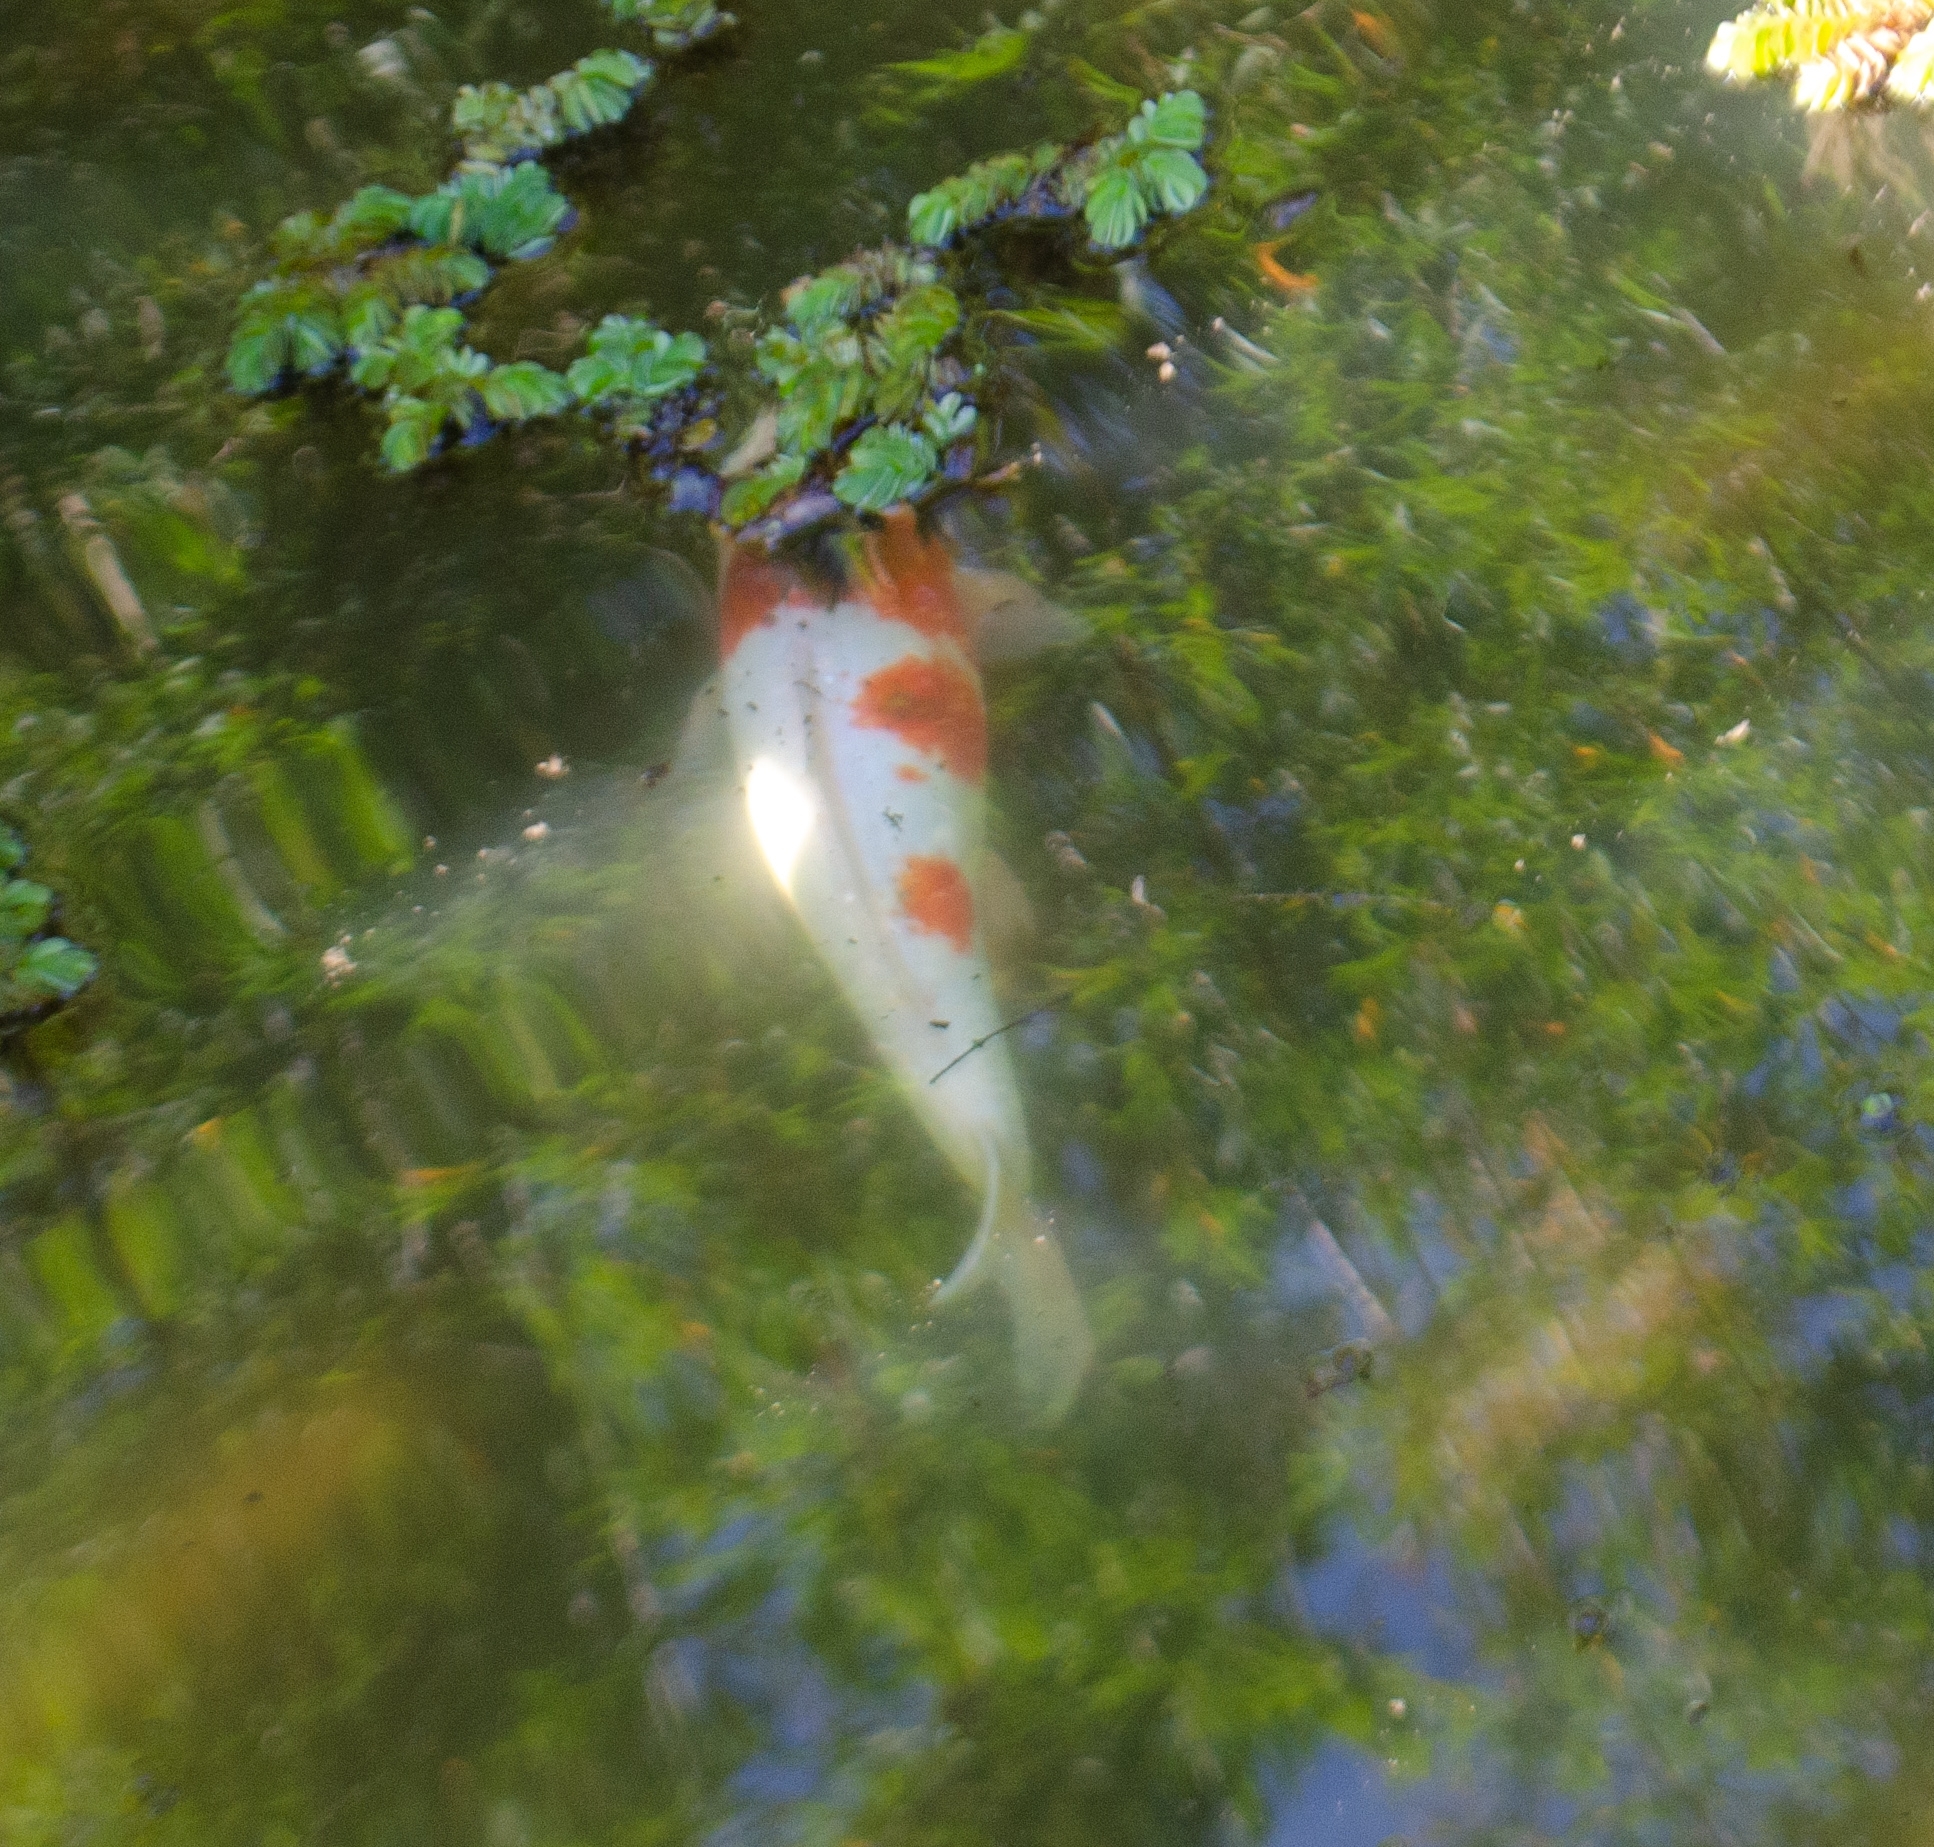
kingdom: Animalia
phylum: Chordata
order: Cypriniformes
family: Cyprinidae
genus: Cyprinus
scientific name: Cyprinus rubrofuscus
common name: Koi
